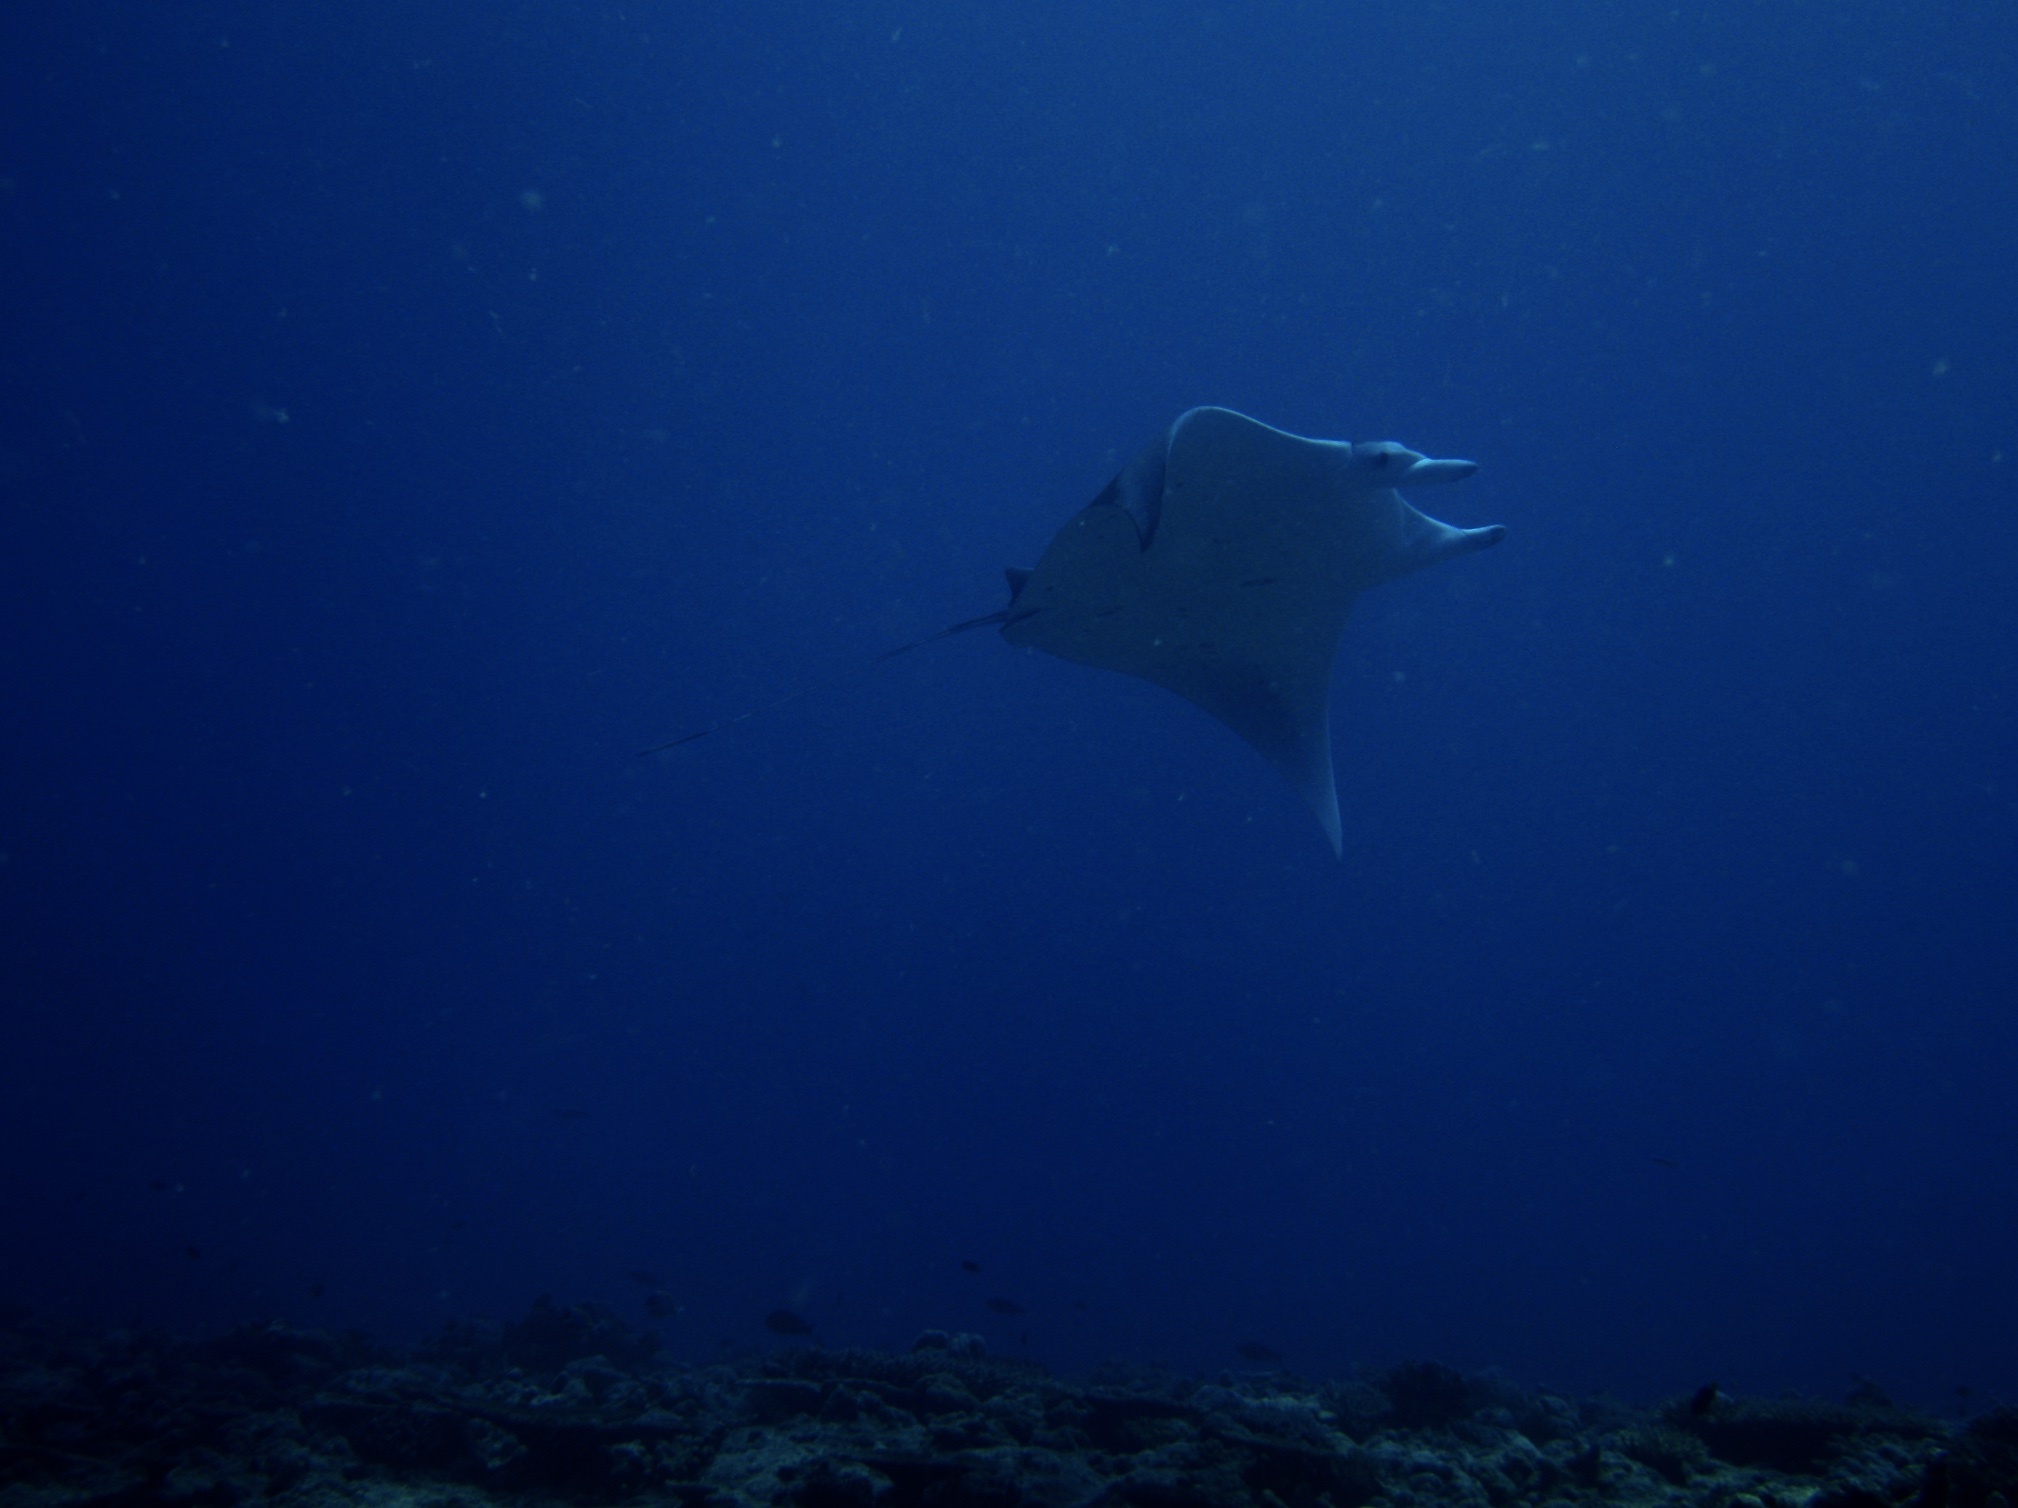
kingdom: Animalia
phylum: Chordata
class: Elasmobranchii
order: Myliobatiformes
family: Myliobatidae
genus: Mobula
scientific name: Mobula alfredi
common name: Reef manta ray
